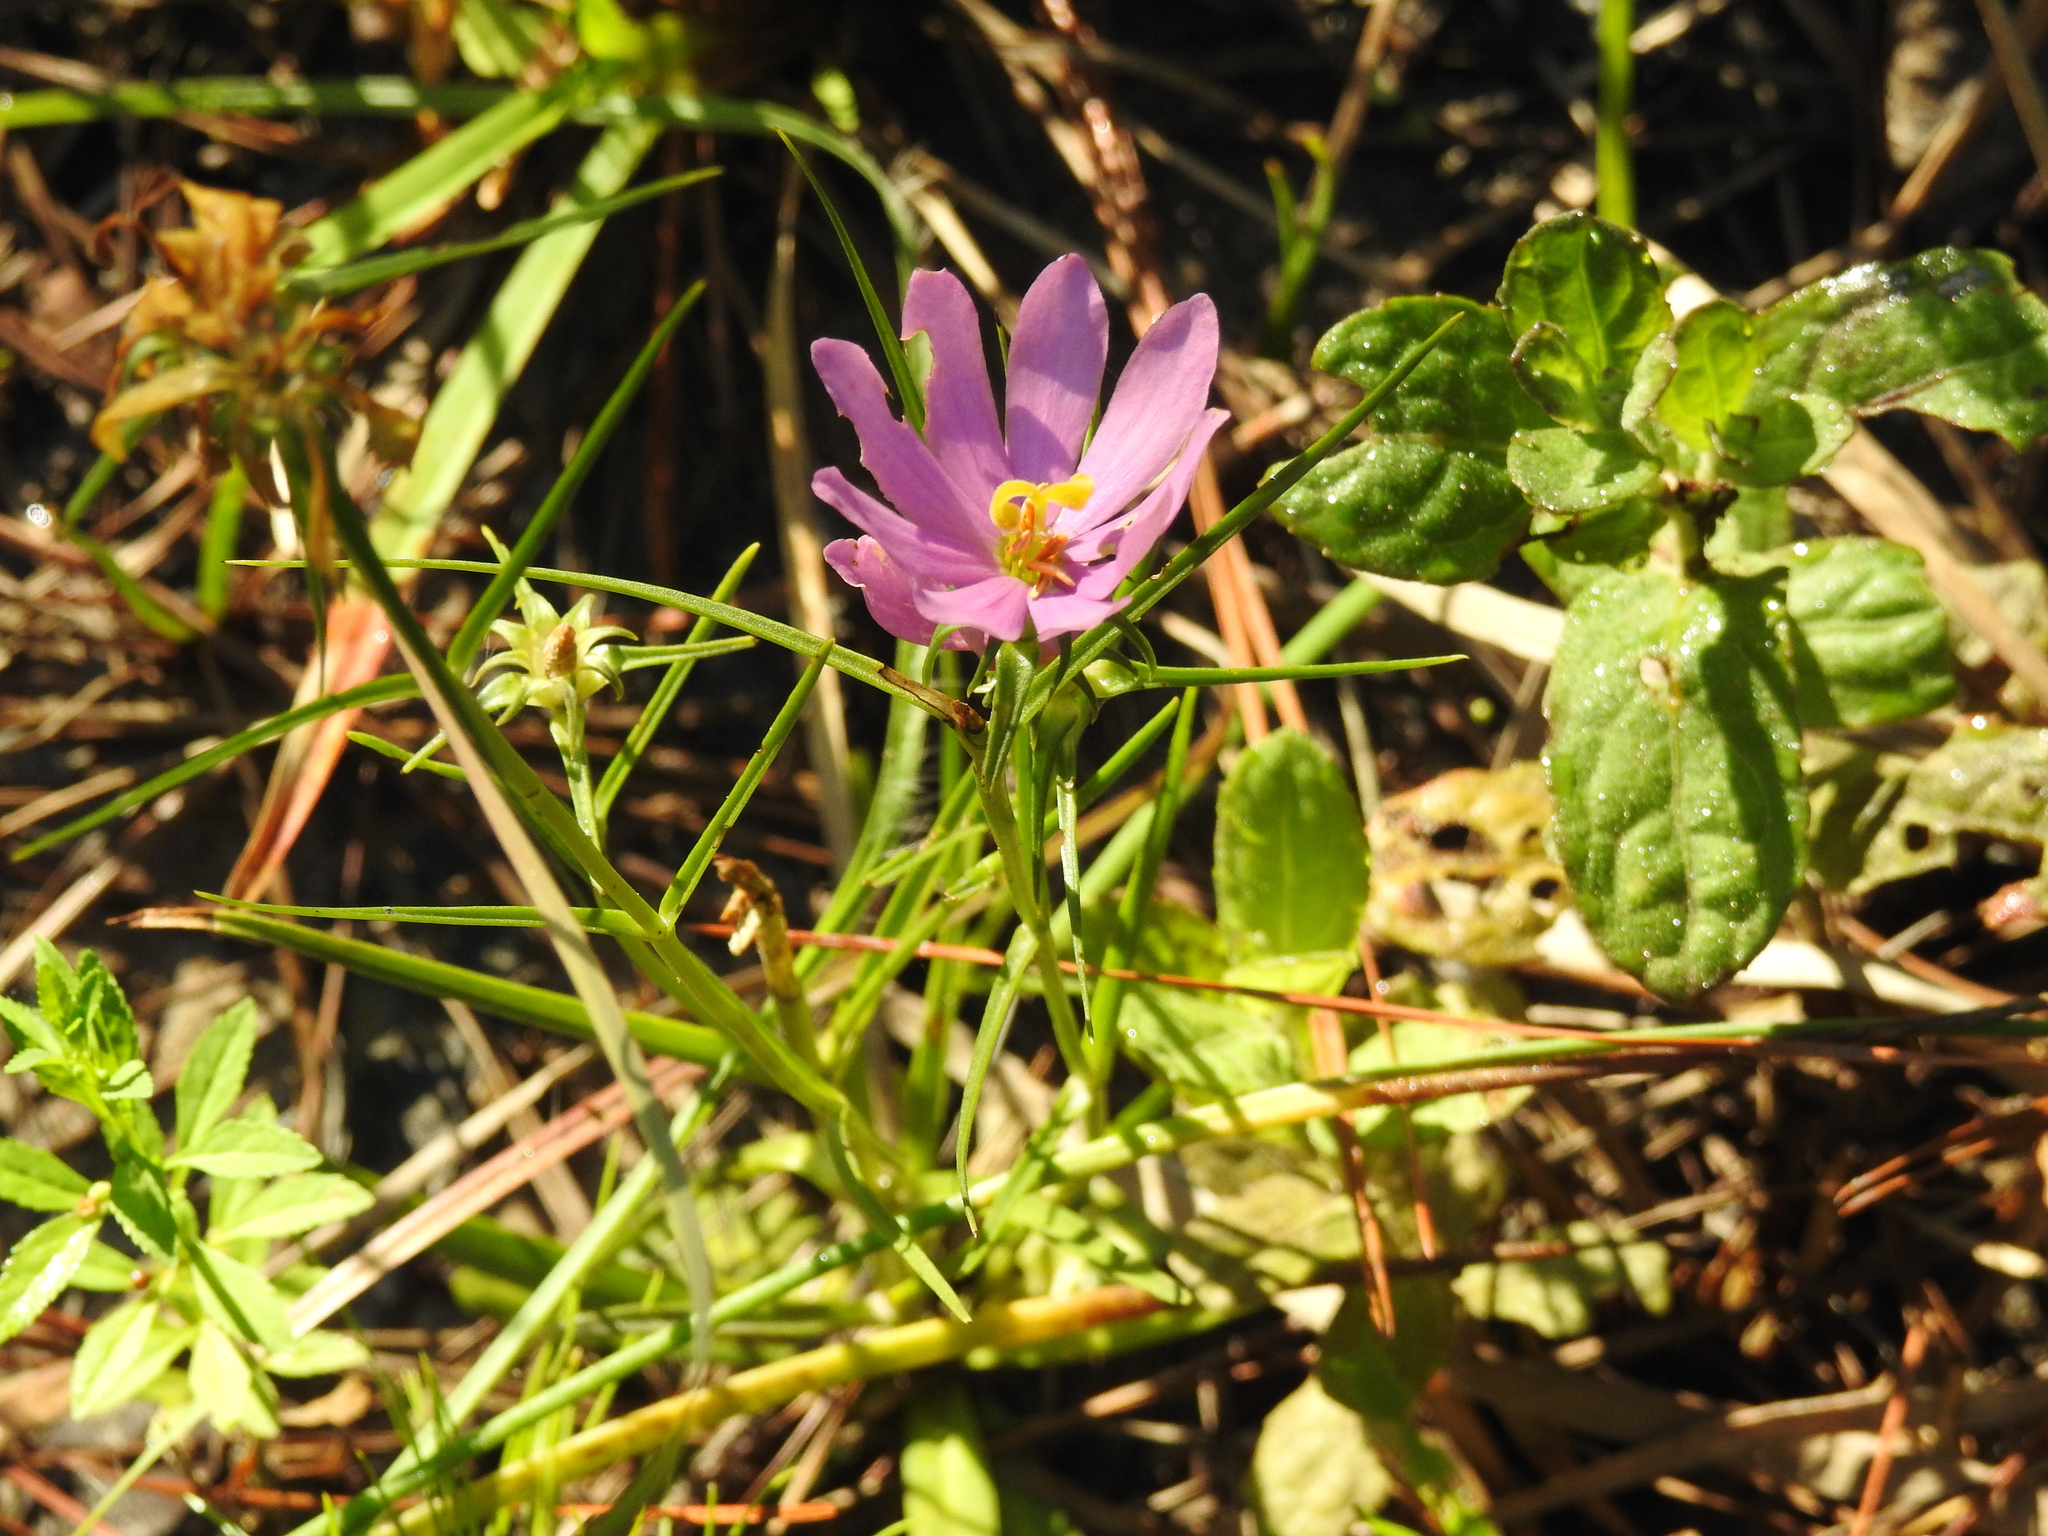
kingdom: Plantae
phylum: Tracheophyta
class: Magnoliopsida
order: Gentianales
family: Gentianaceae
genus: Sabatia
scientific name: Sabatia gentianoides
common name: Pinewoods rose-gentian
